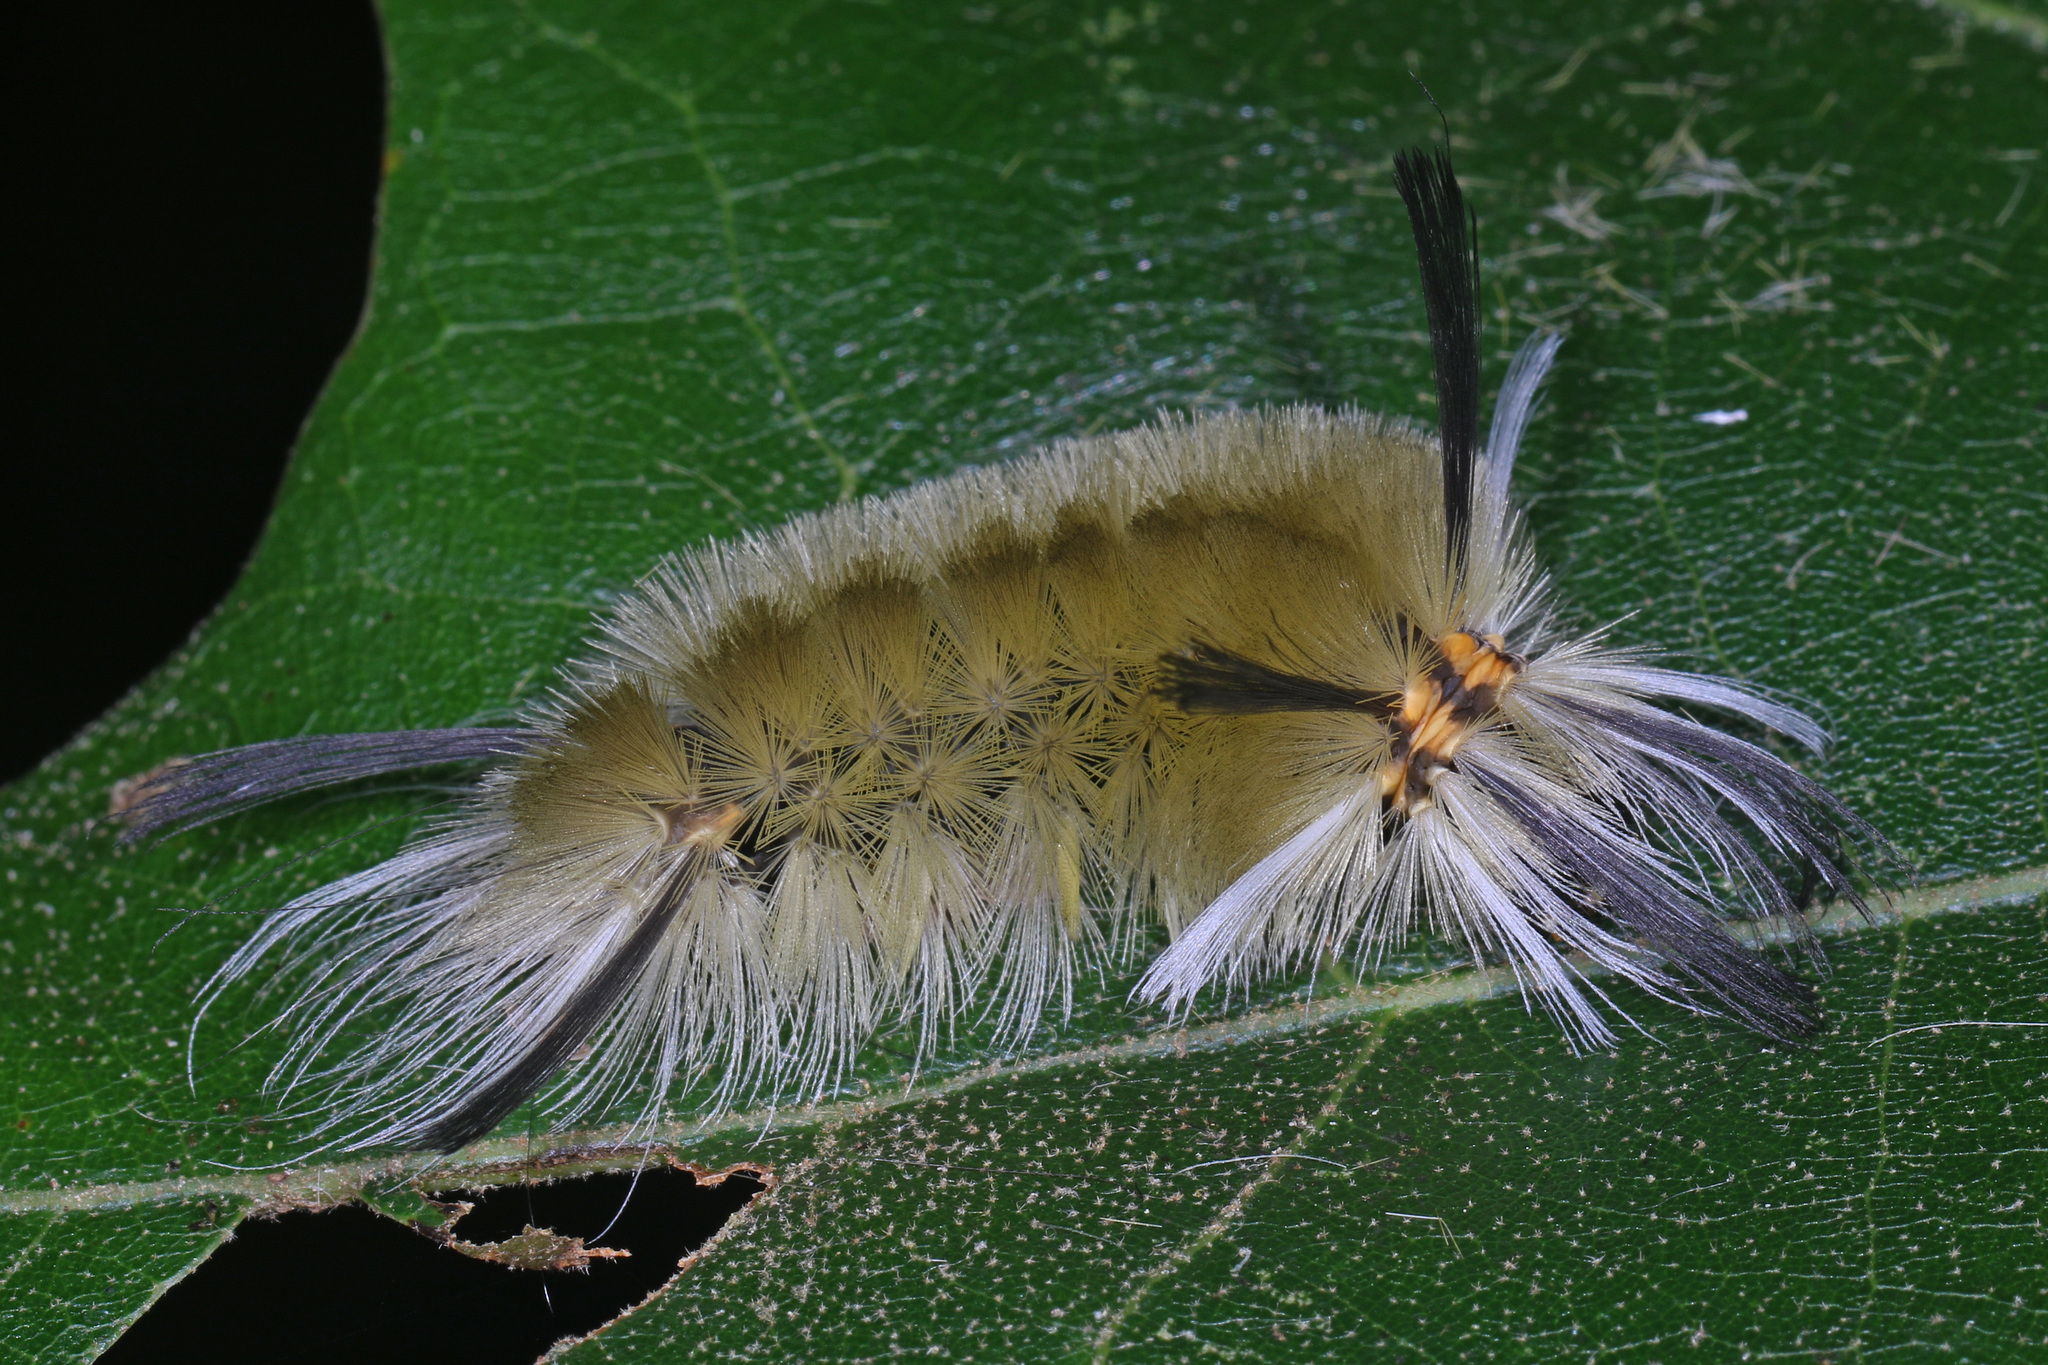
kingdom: Animalia
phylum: Arthropoda
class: Insecta
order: Lepidoptera
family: Erebidae
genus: Halysidota
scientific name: Halysidota tessellaris
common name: Banded tussock moth
